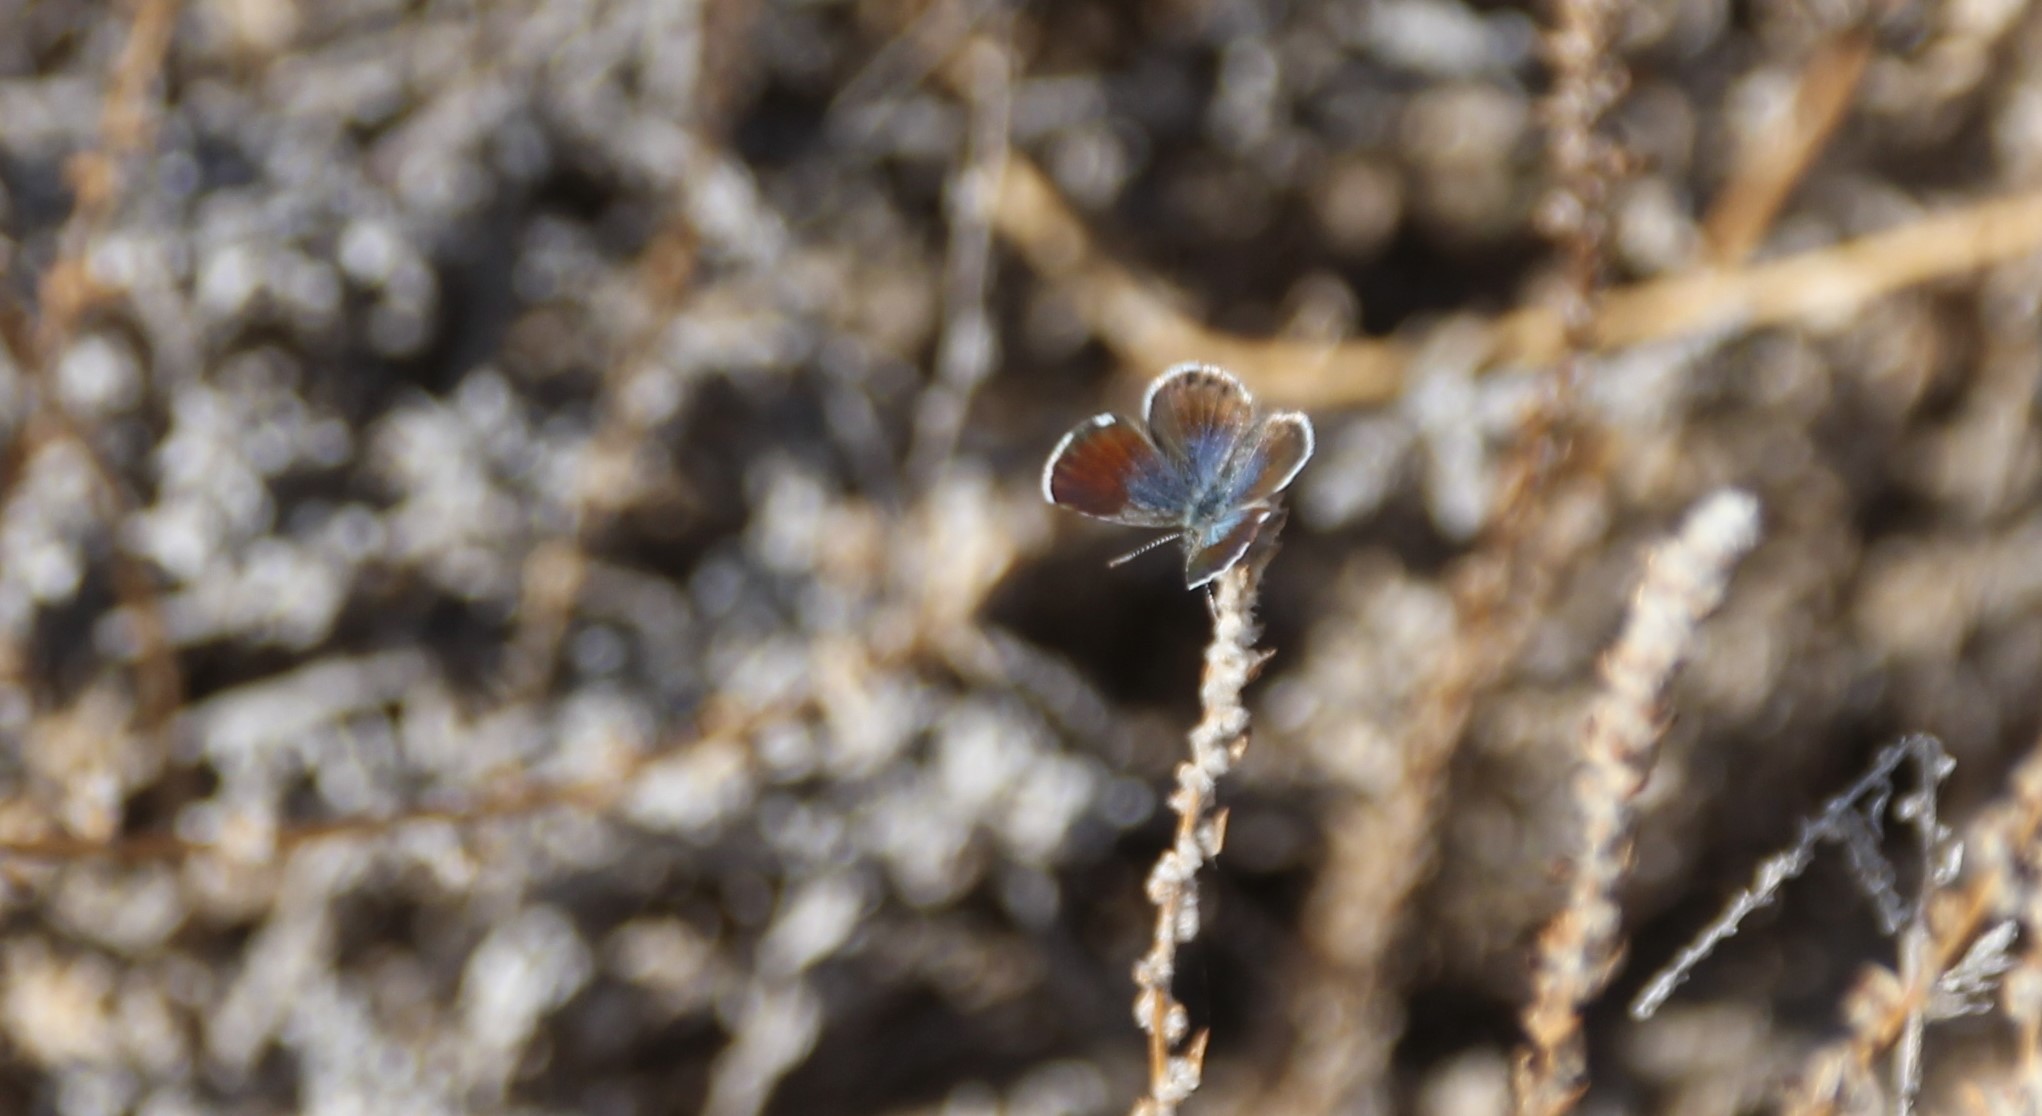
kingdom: Animalia
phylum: Arthropoda
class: Insecta
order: Lepidoptera
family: Lycaenidae
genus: Brephidium
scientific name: Brephidium exilis
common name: Pygmy blue
